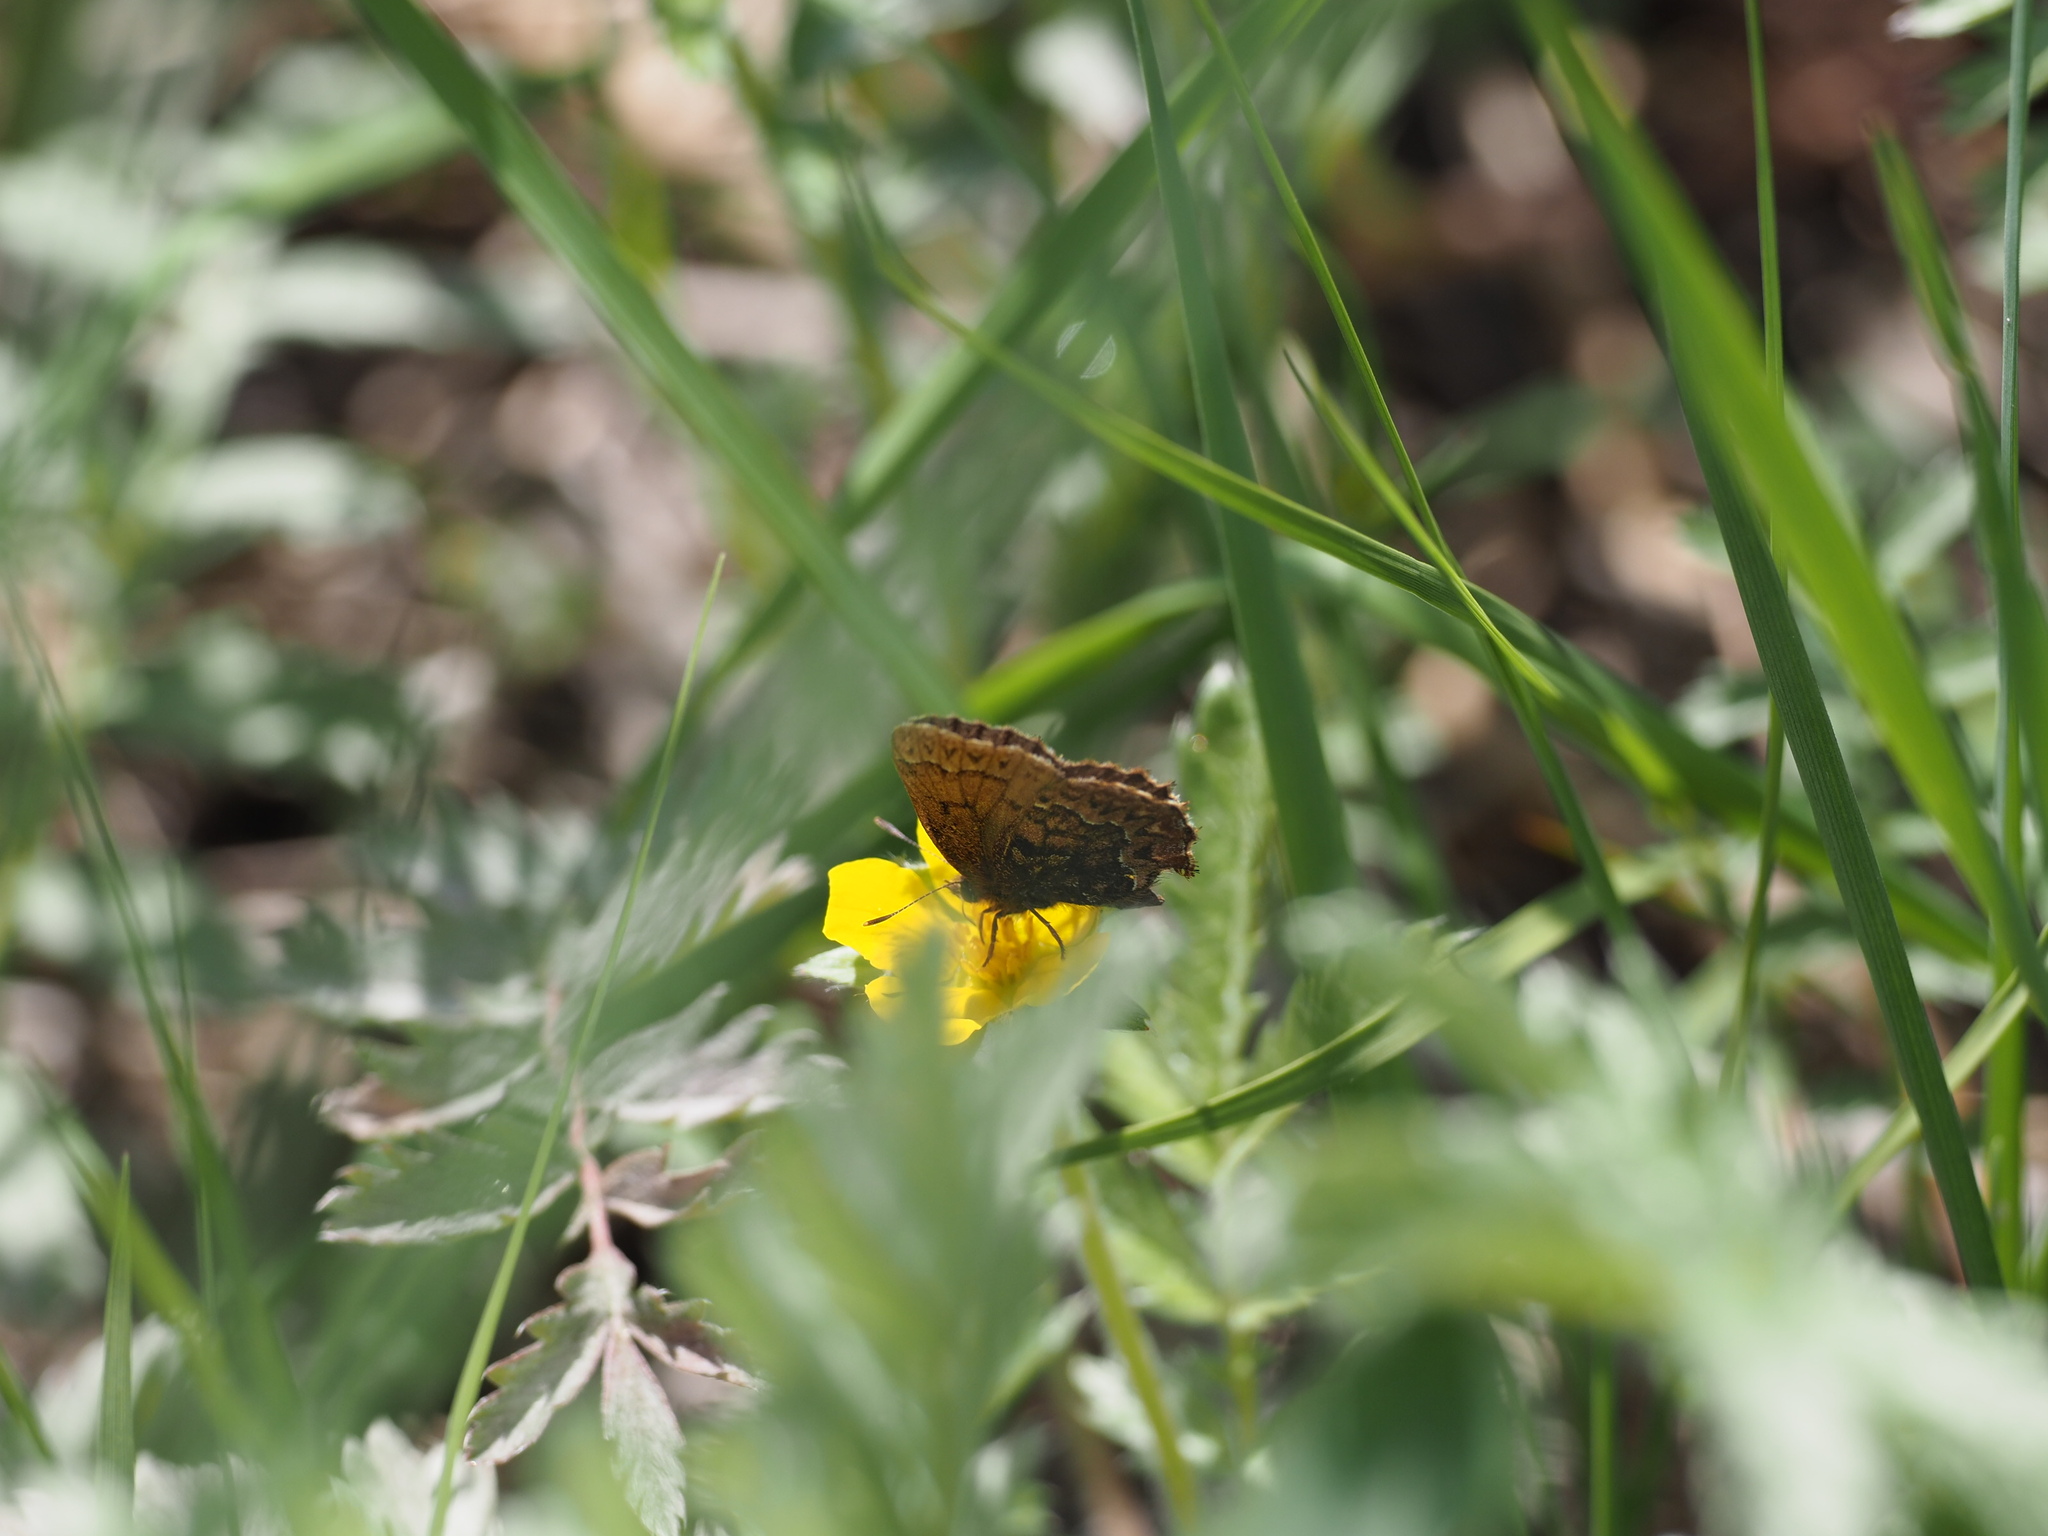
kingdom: Animalia
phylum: Arthropoda
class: Insecta
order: Lepidoptera
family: Lycaenidae
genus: Incisalia
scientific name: Incisalia eryphon
